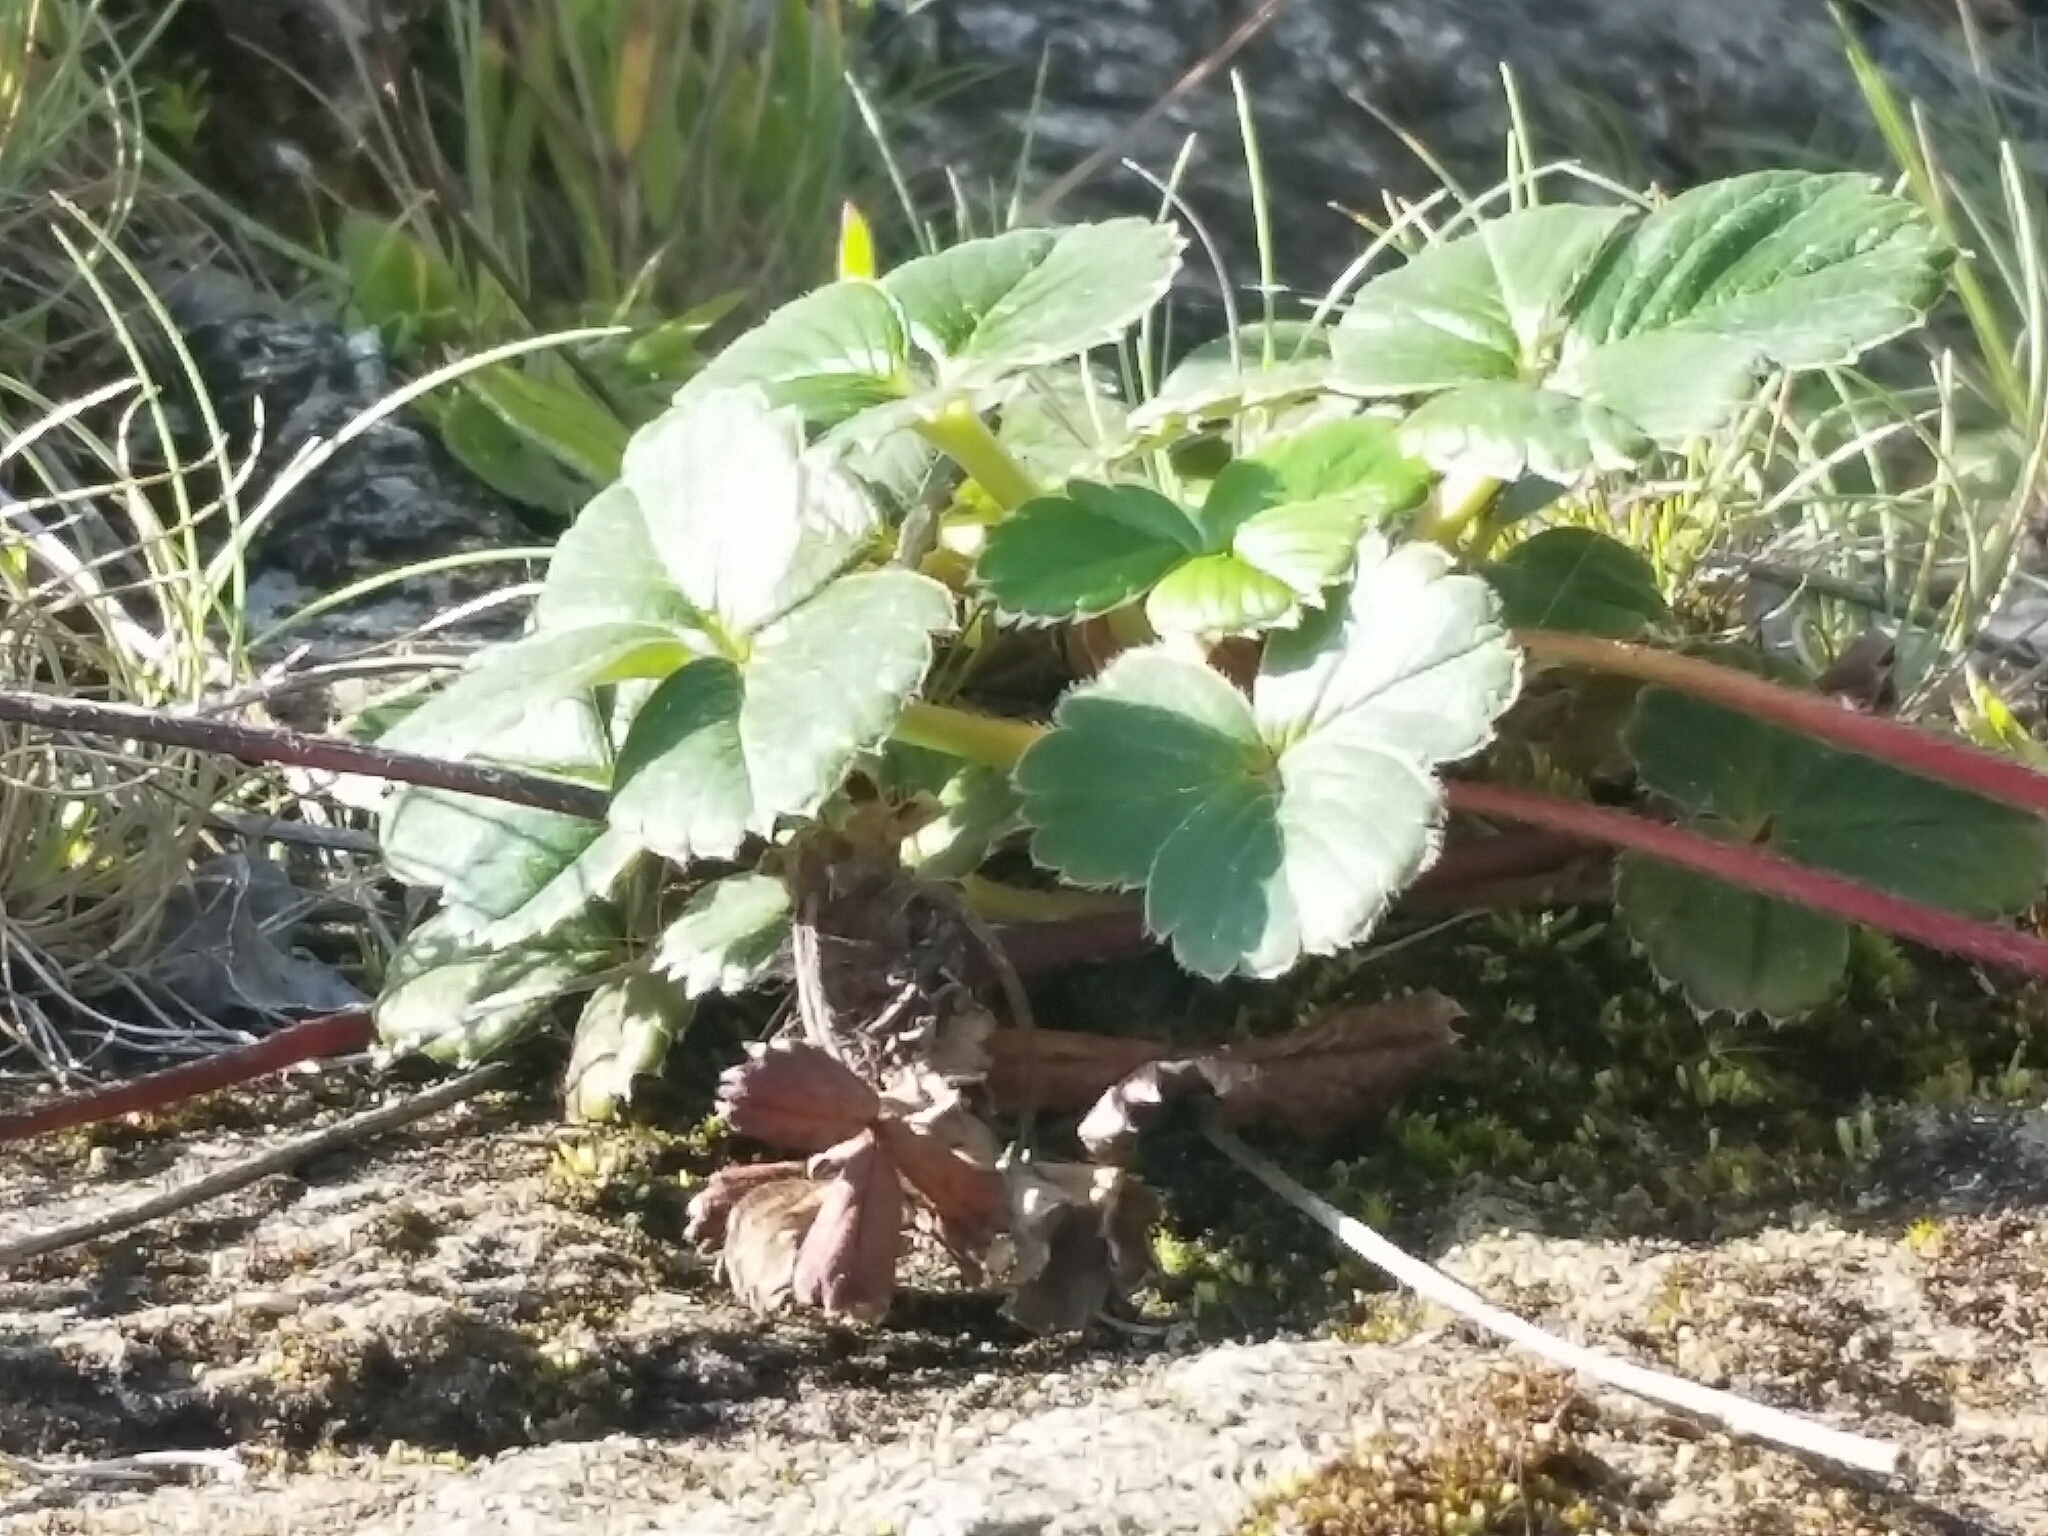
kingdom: Plantae
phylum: Tracheophyta
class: Magnoliopsida
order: Rosales
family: Rosaceae
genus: Fragaria
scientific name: Fragaria chiloensis
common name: Beach strawberry
